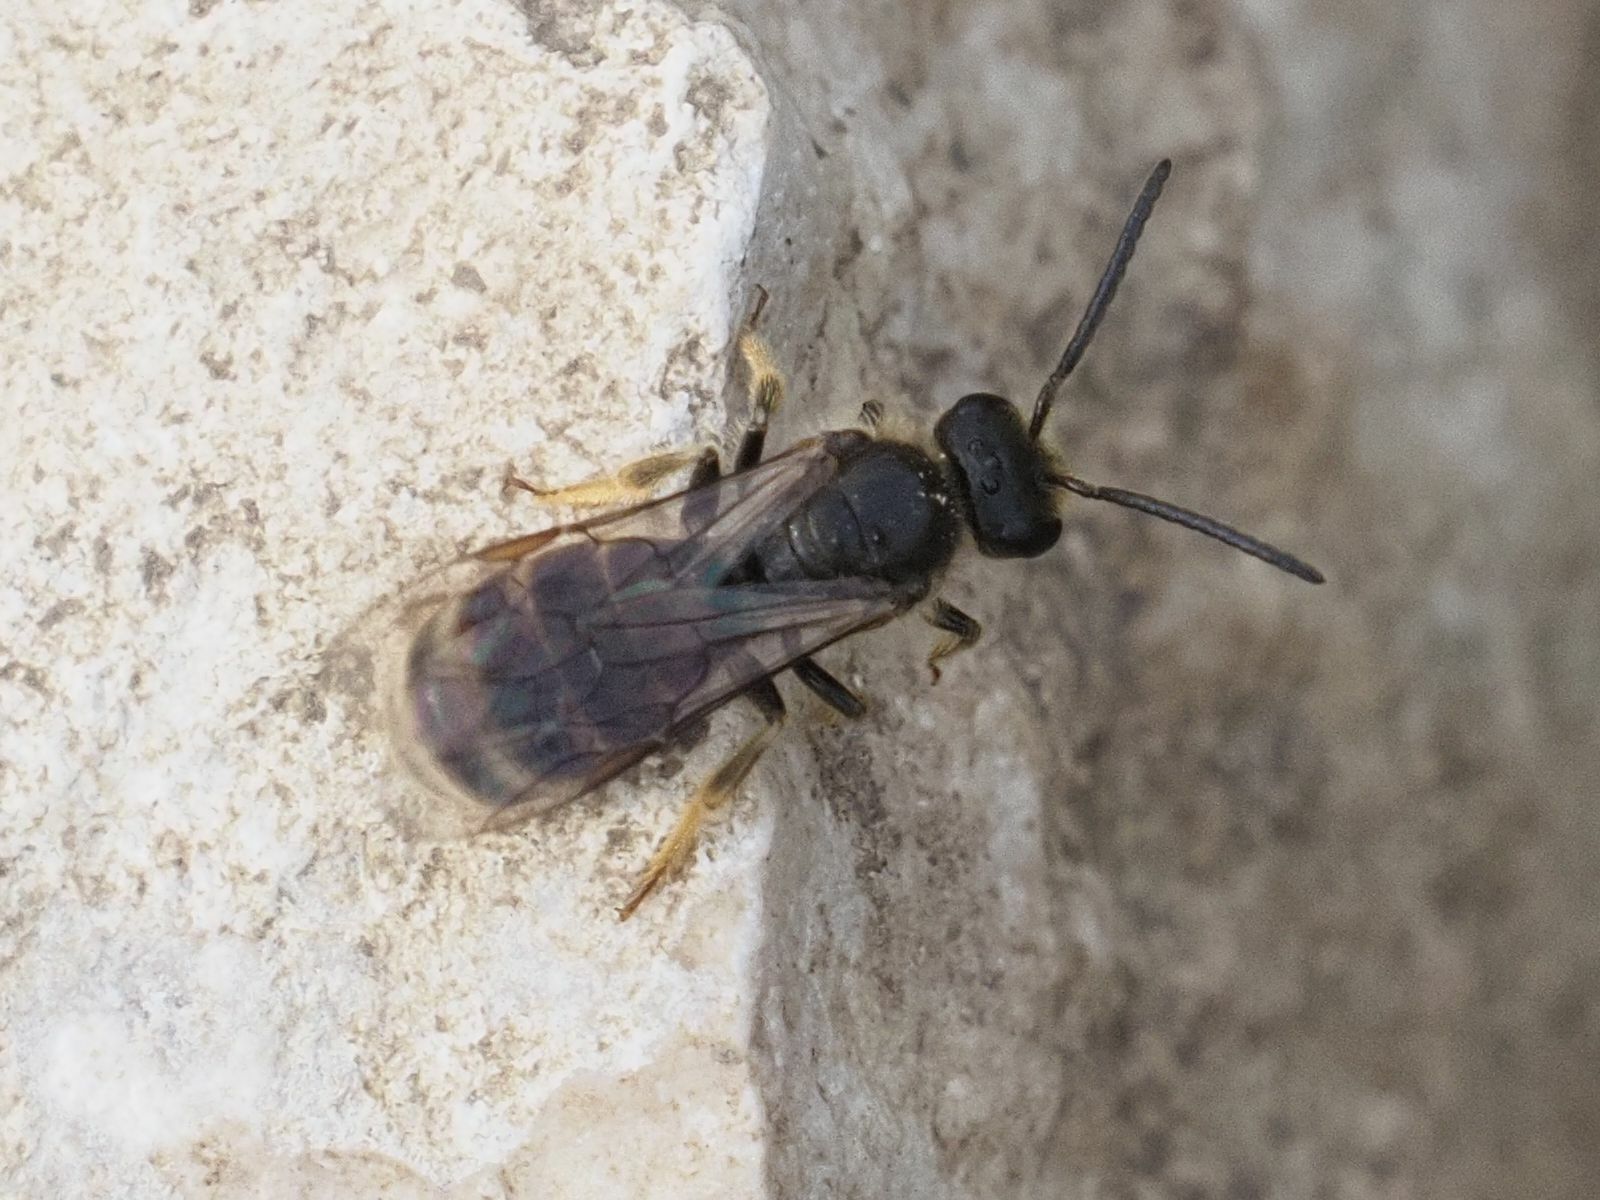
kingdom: Animalia
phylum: Arthropoda
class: Insecta
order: Hymenoptera
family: Halictidae
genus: Lasioglossum
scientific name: Lasioglossum marginatum
